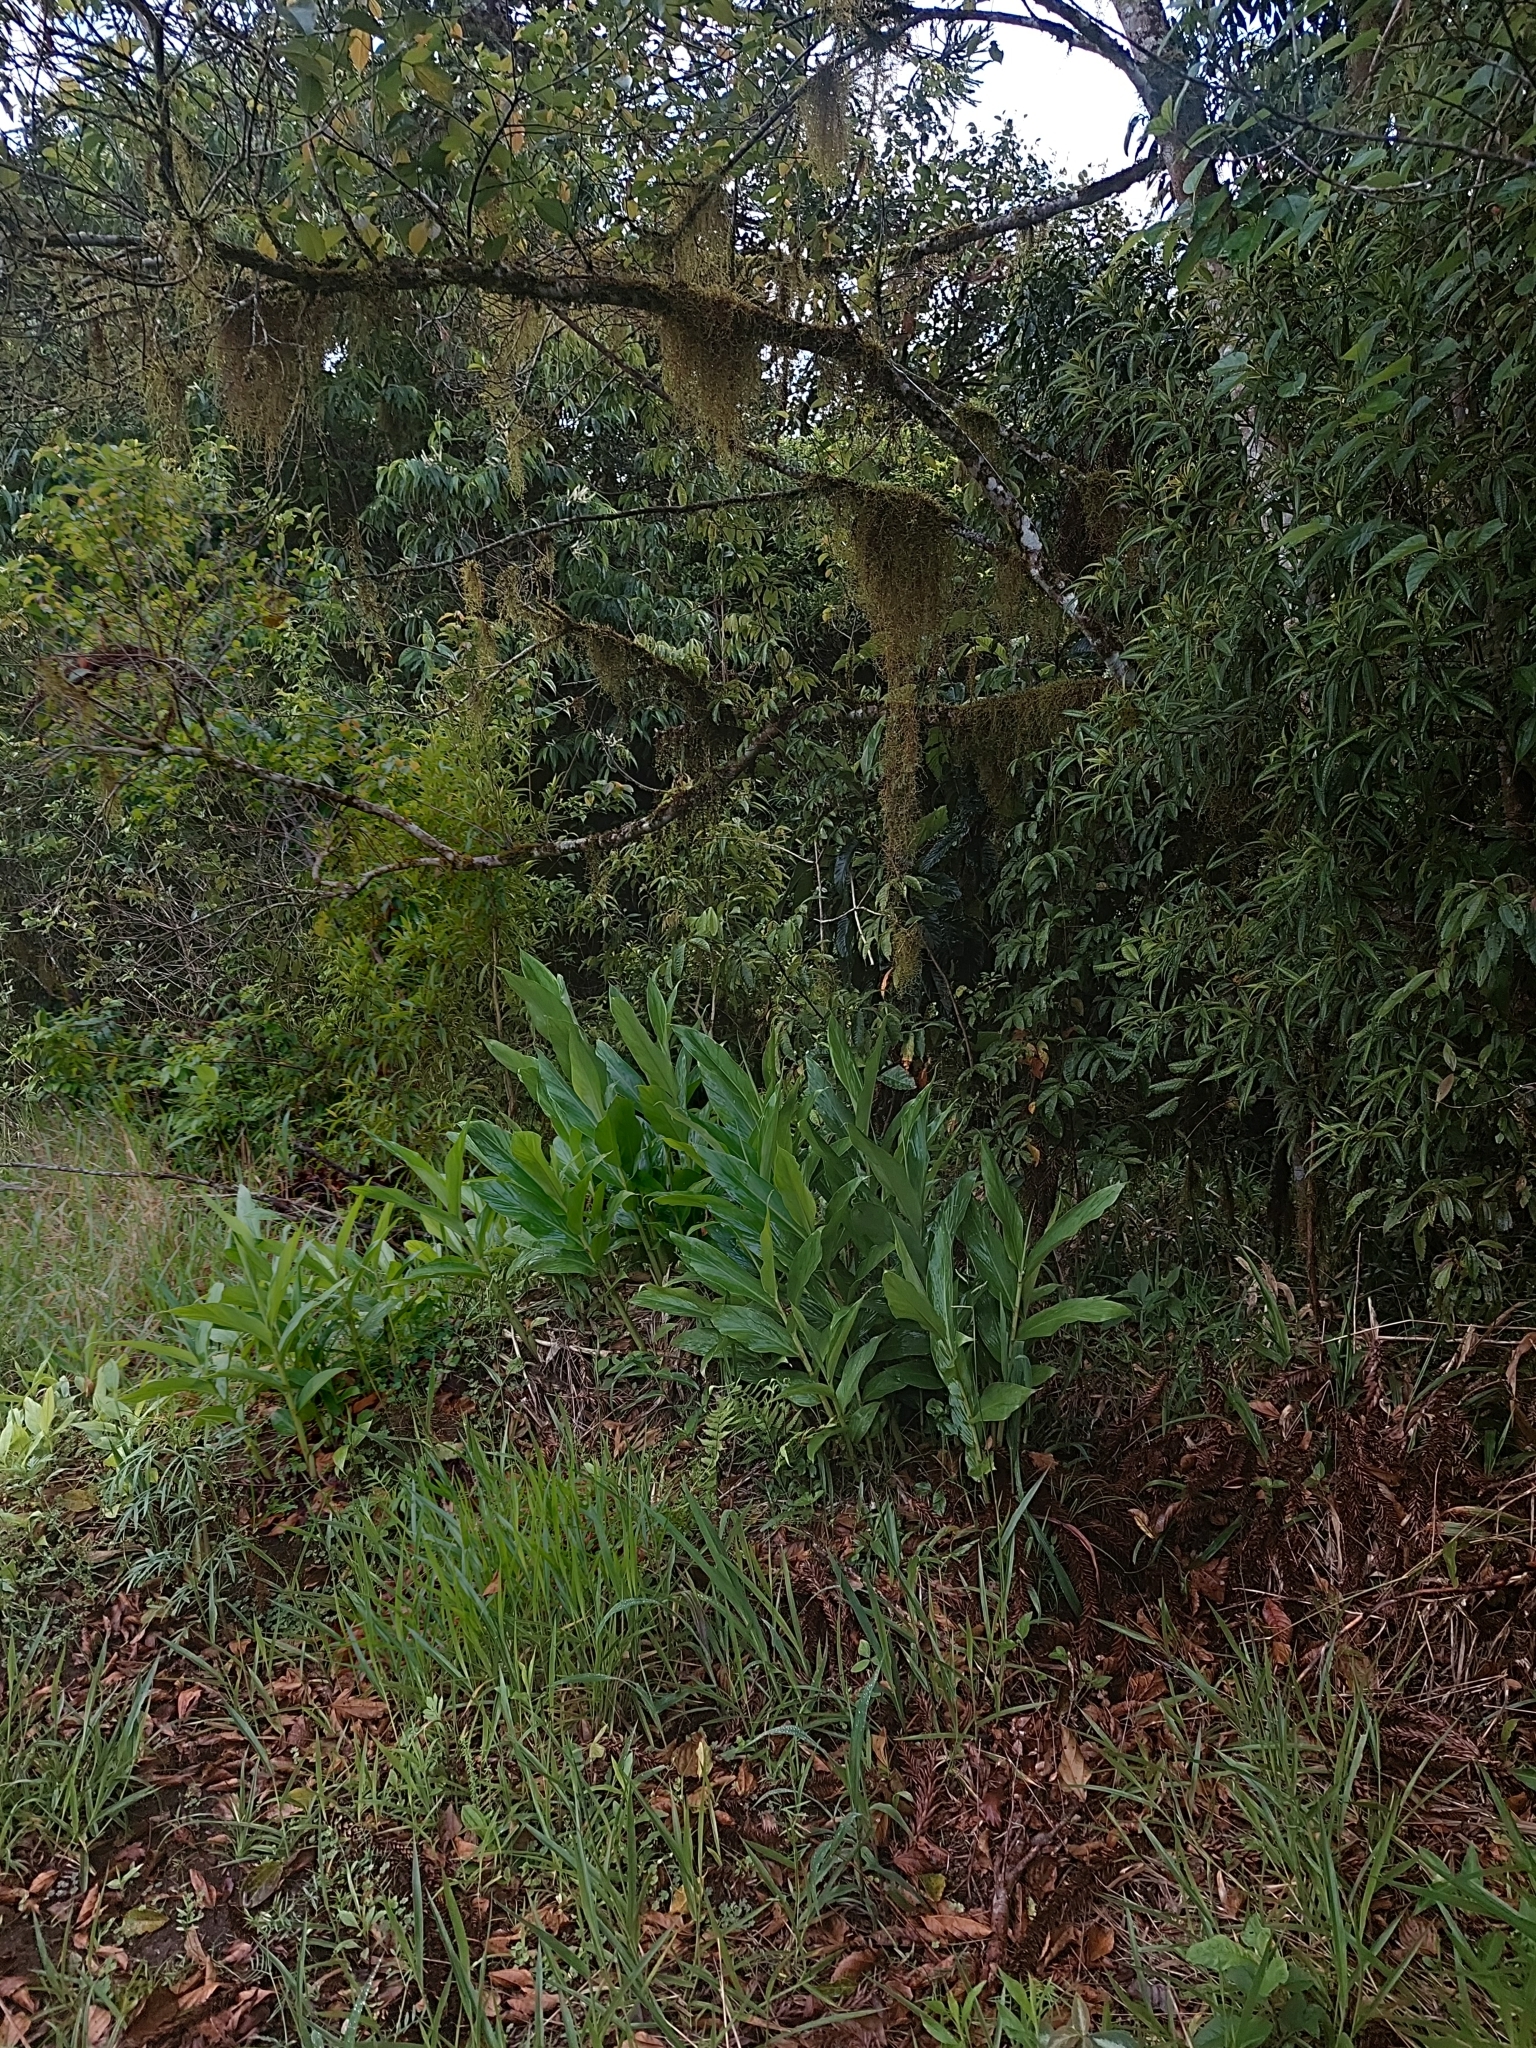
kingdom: Plantae
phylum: Tracheophyta
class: Liliopsida
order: Zingiberales
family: Zingiberaceae
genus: Hedychium
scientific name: Hedychium coronarium
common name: White garland-lily
